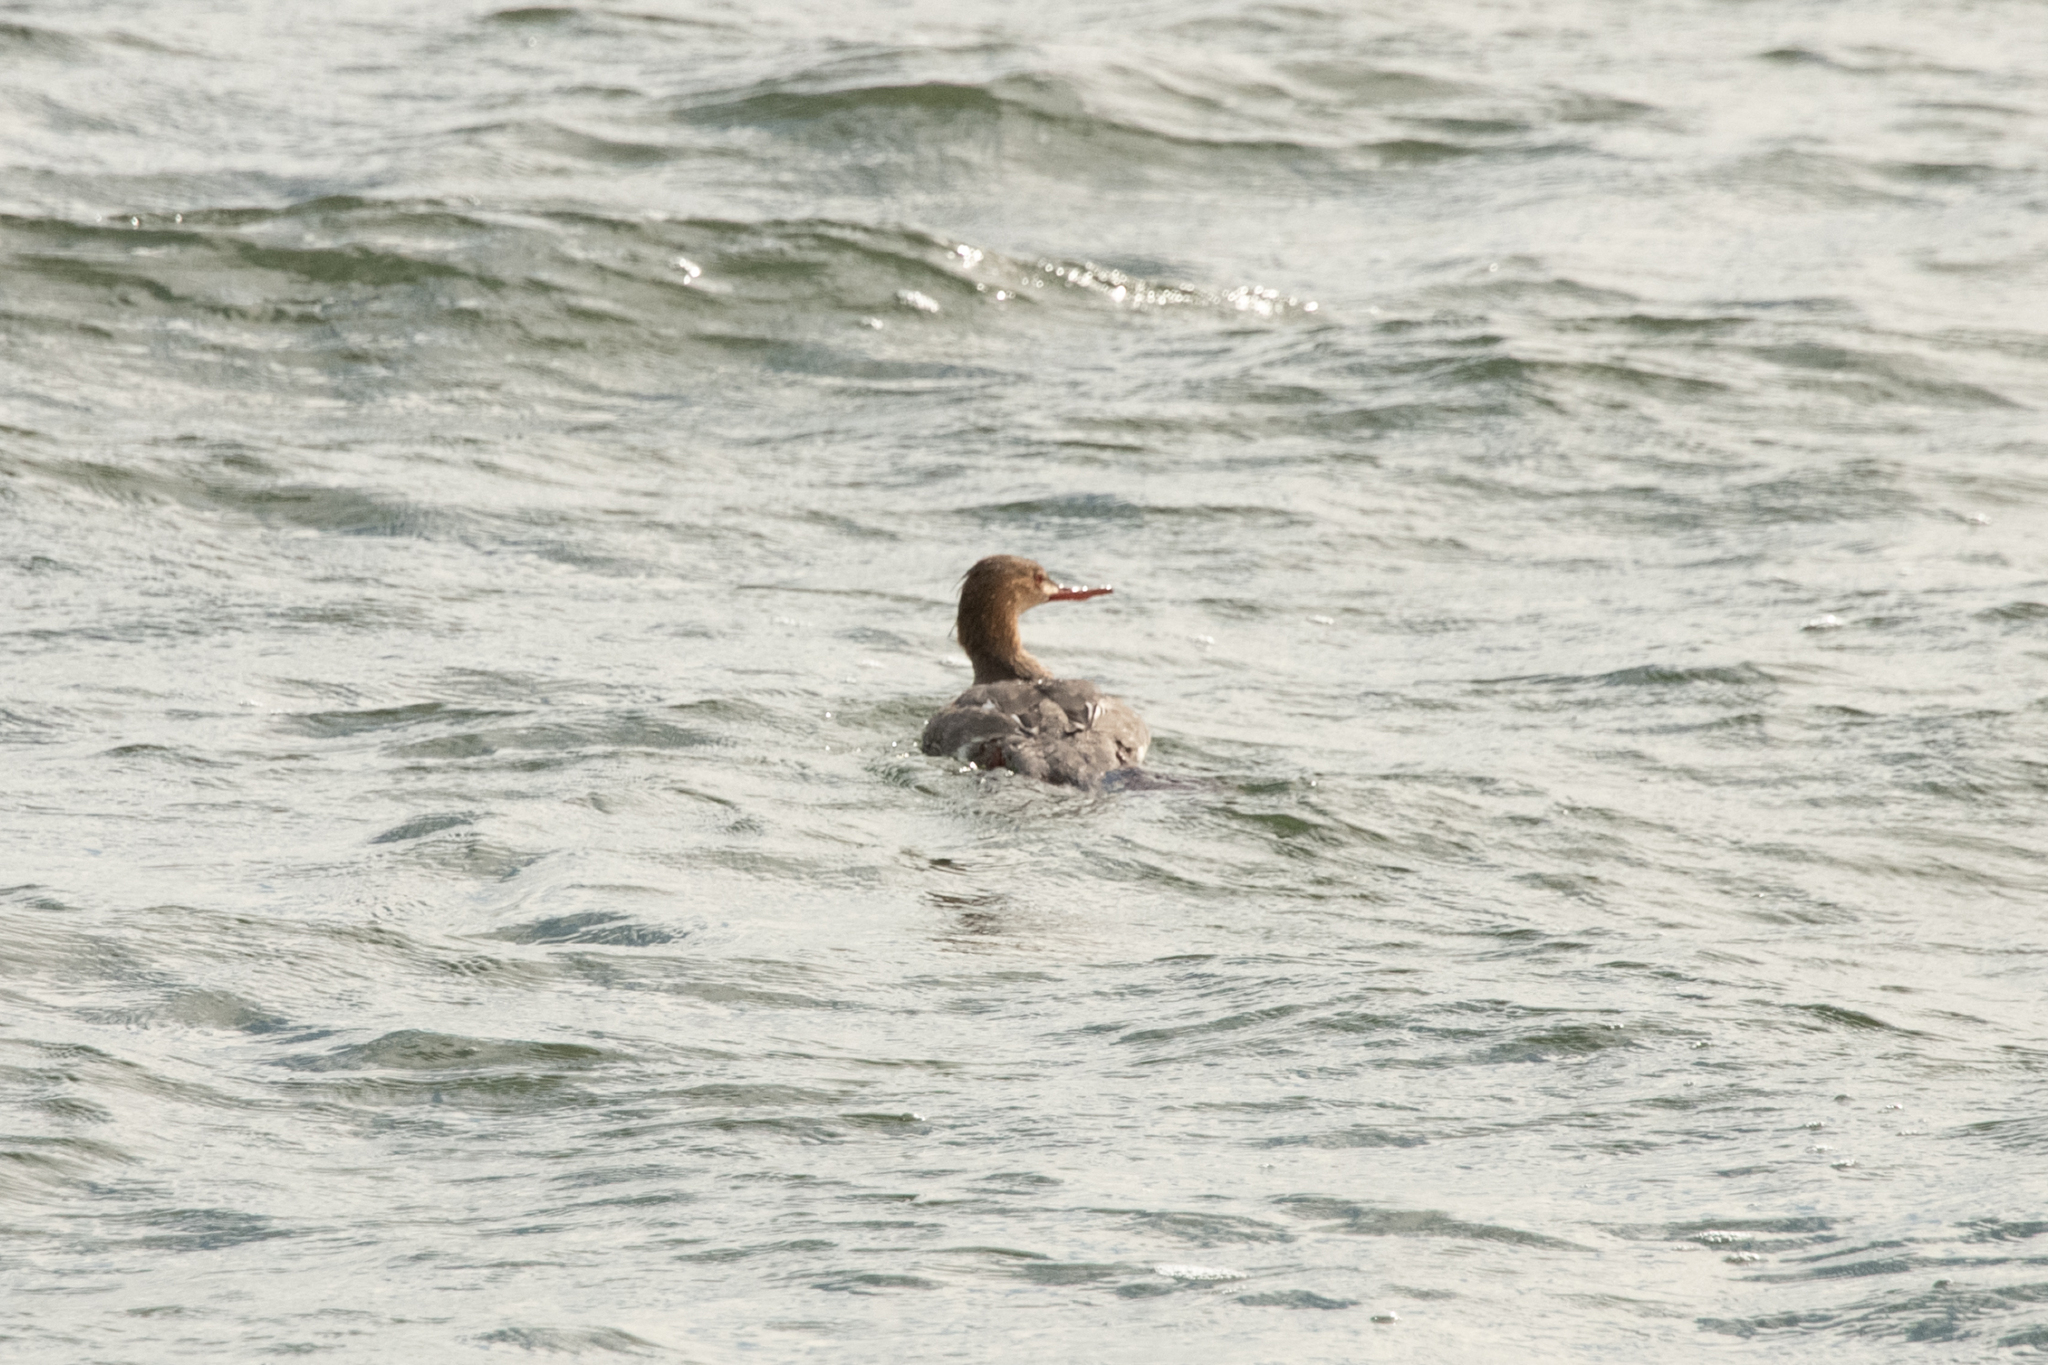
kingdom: Animalia
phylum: Chordata
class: Aves
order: Anseriformes
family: Anatidae
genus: Mergus
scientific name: Mergus serrator
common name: Red-breasted merganser
